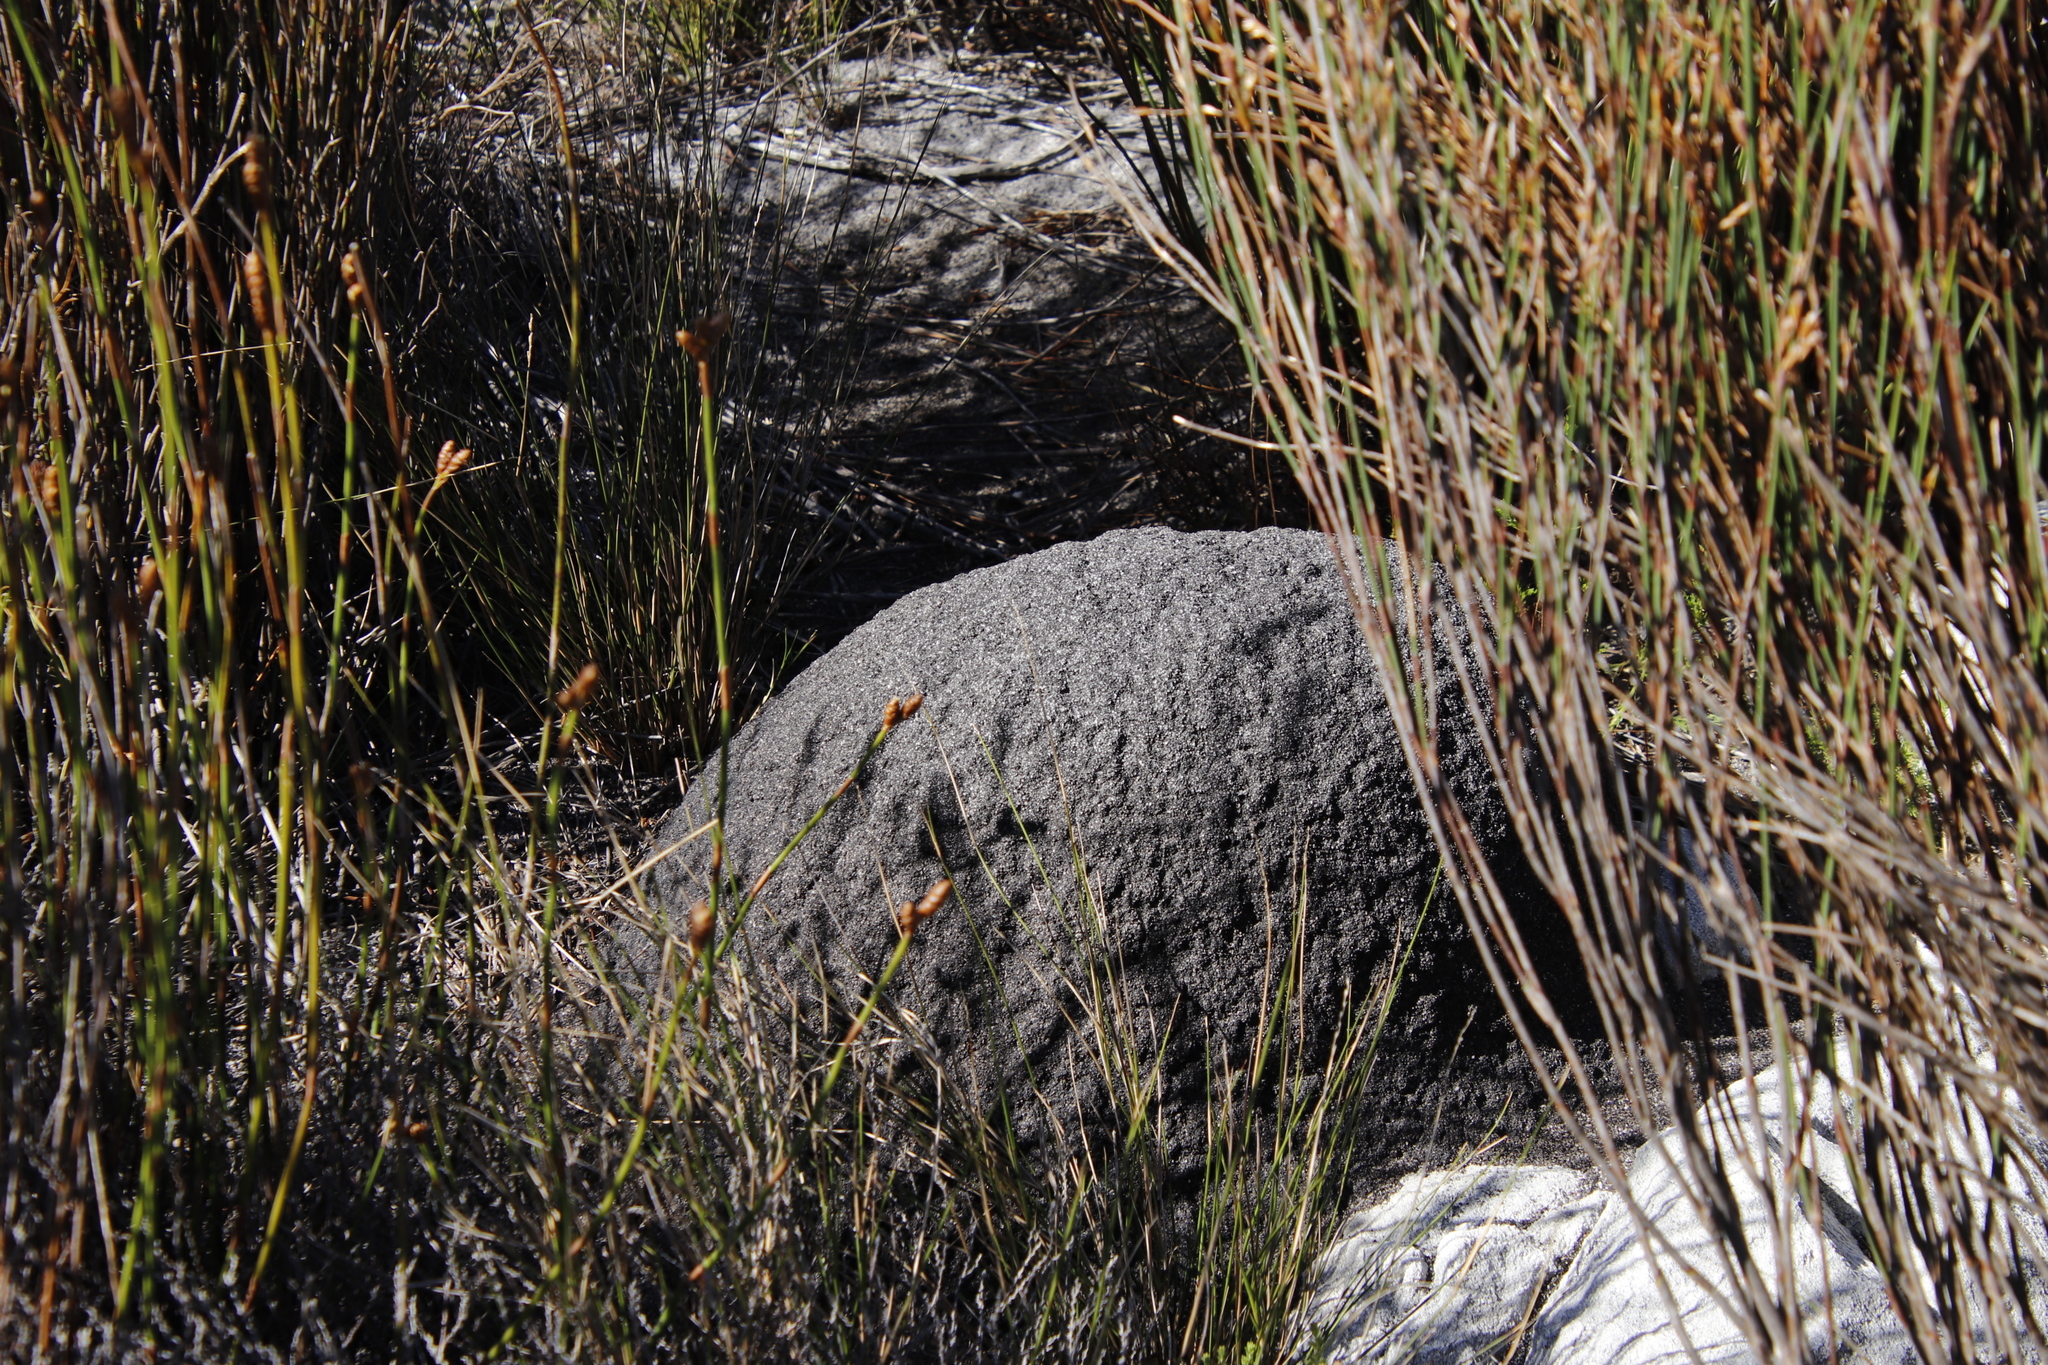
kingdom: Animalia
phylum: Arthropoda
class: Insecta
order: Blattodea
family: Termitidae
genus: Amitermes
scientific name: Amitermes hastatus
